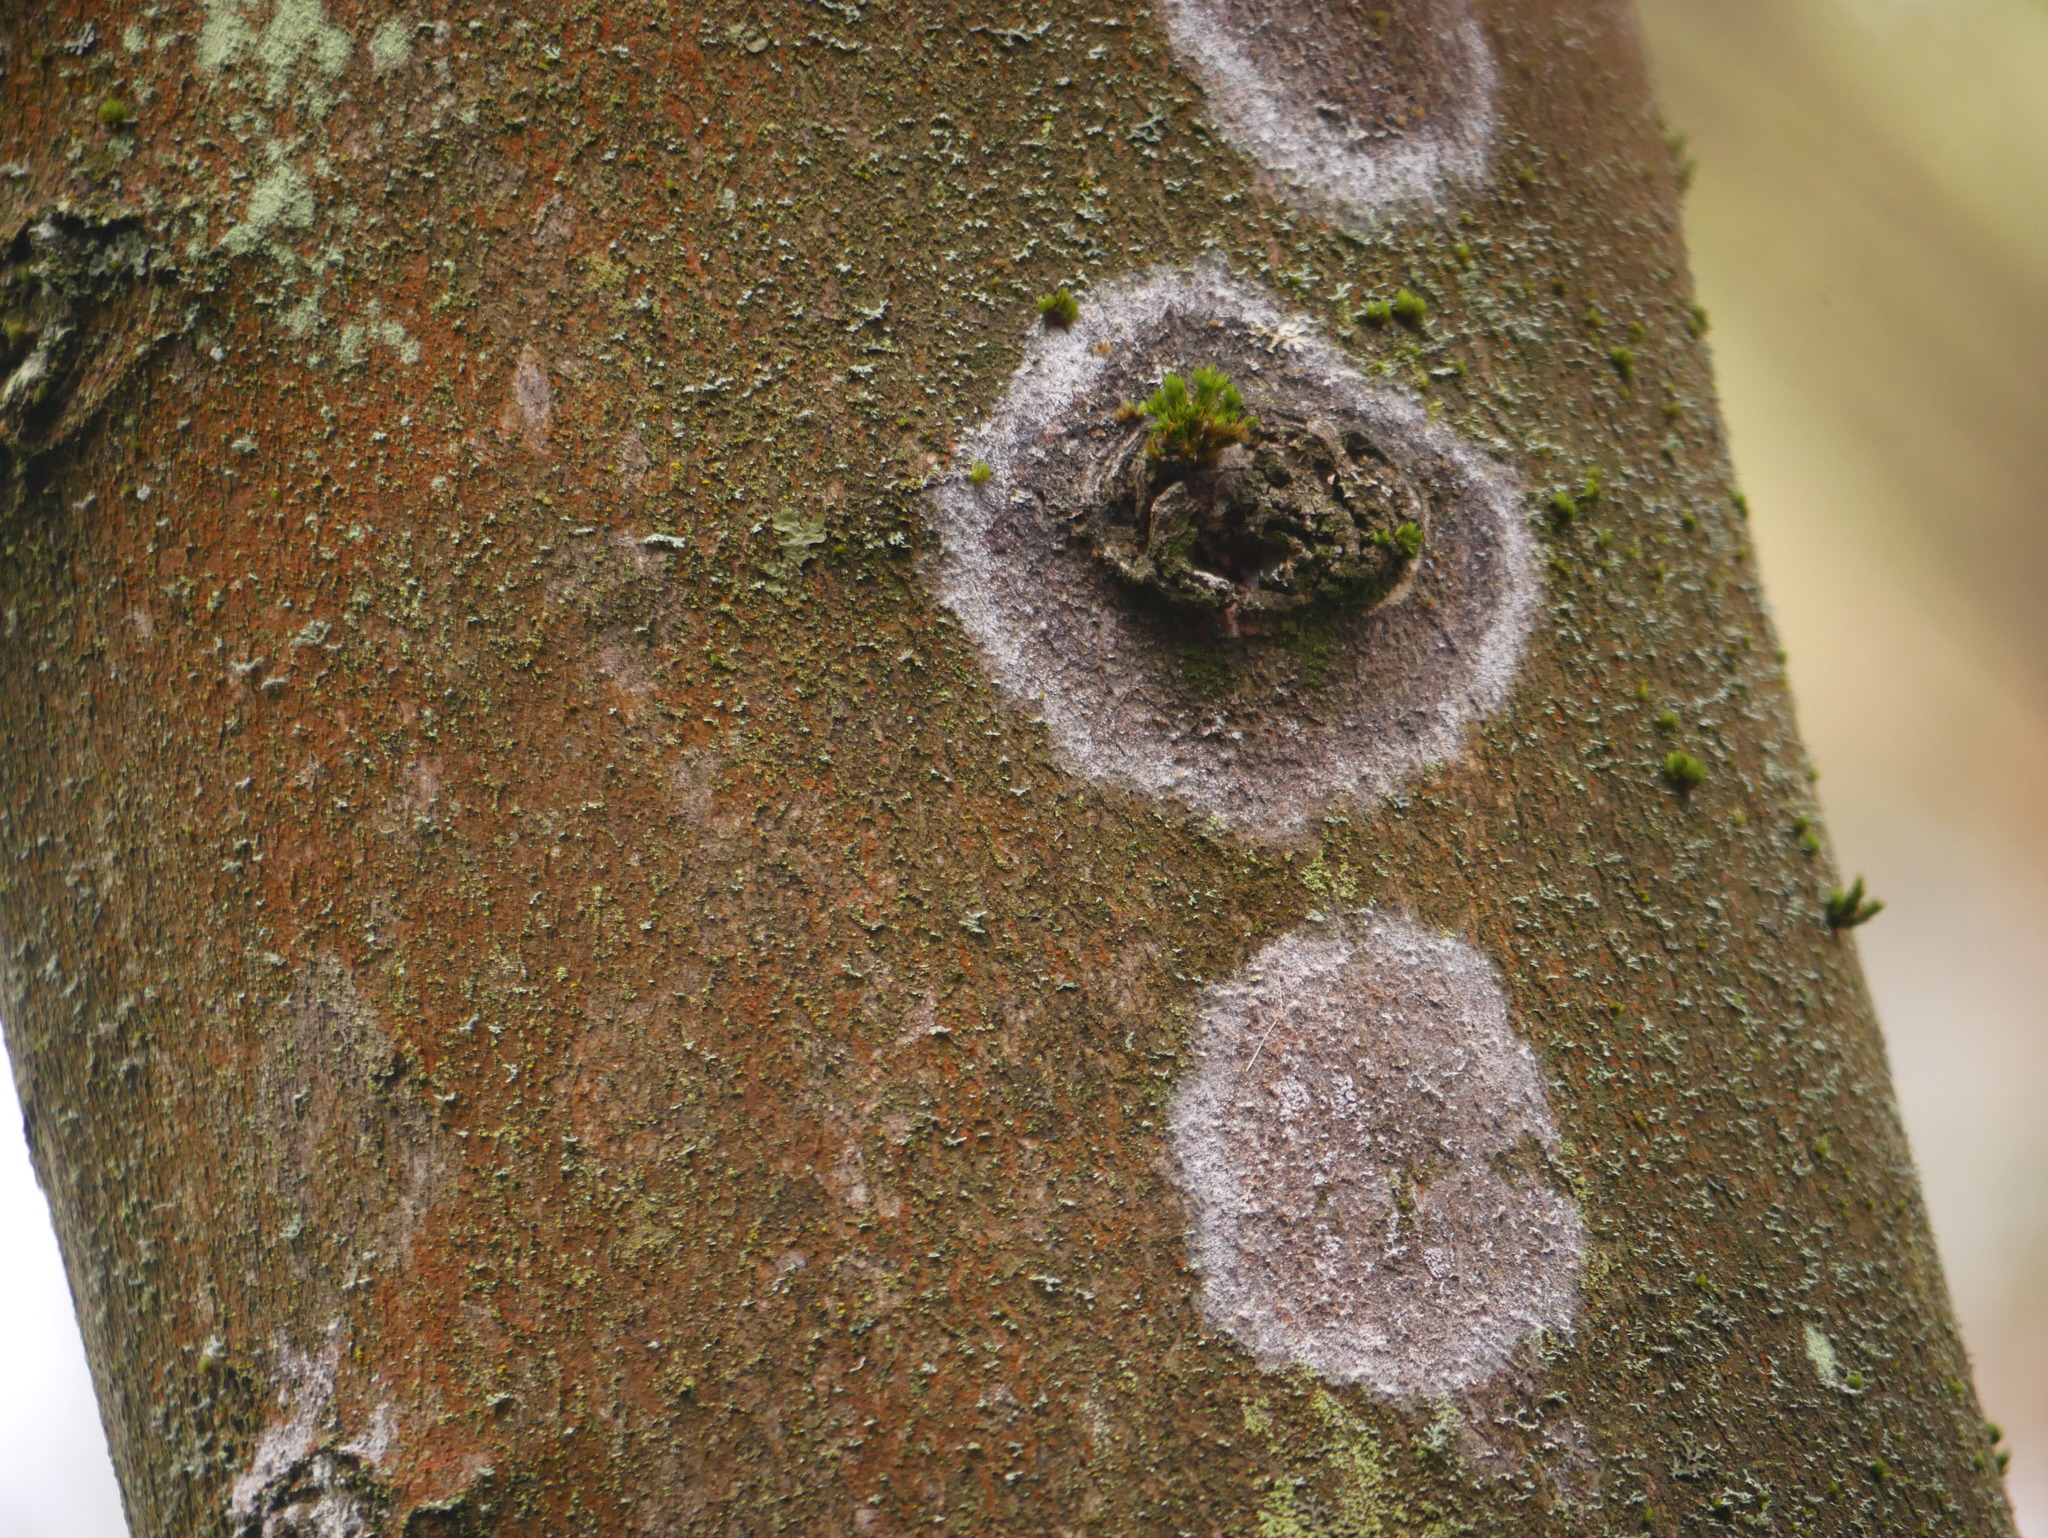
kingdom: Fungi
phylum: Basidiomycota
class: Agaricomycetes
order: Atheliales
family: Atheliaceae
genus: Athelia
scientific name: Athelia arachnoidea
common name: Candelabra duster
